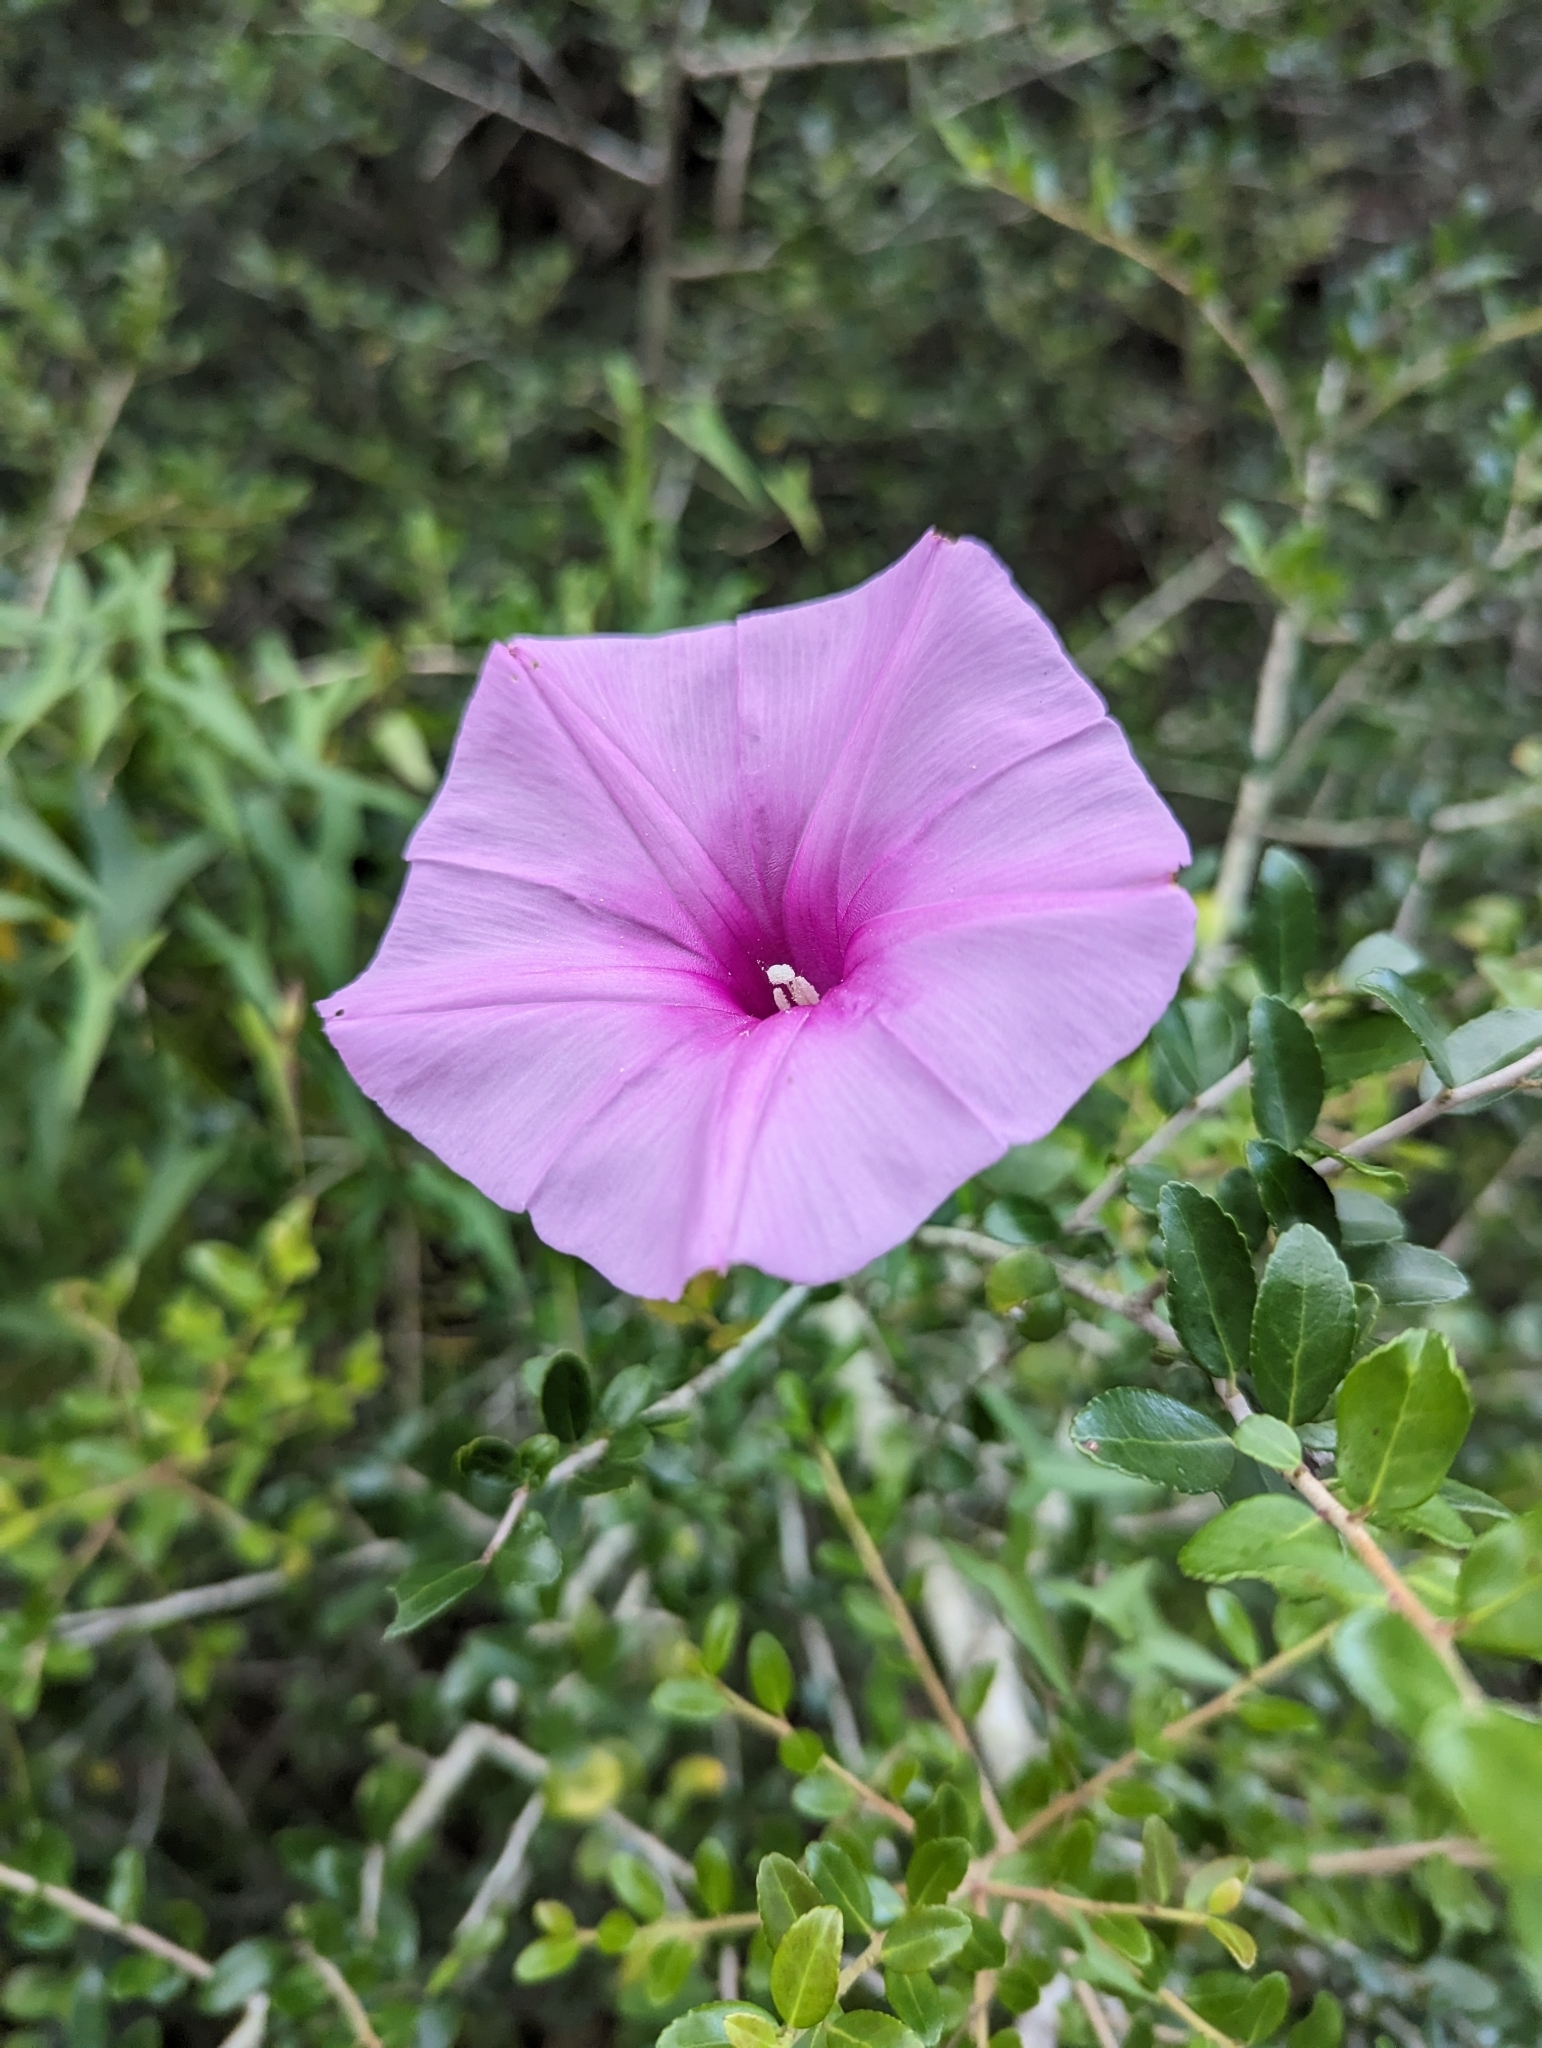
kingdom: Plantae
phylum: Tracheophyta
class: Magnoliopsida
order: Solanales
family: Convolvulaceae
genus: Ipomoea
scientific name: Ipomoea sagittata
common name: Saltmarsh morning glory
